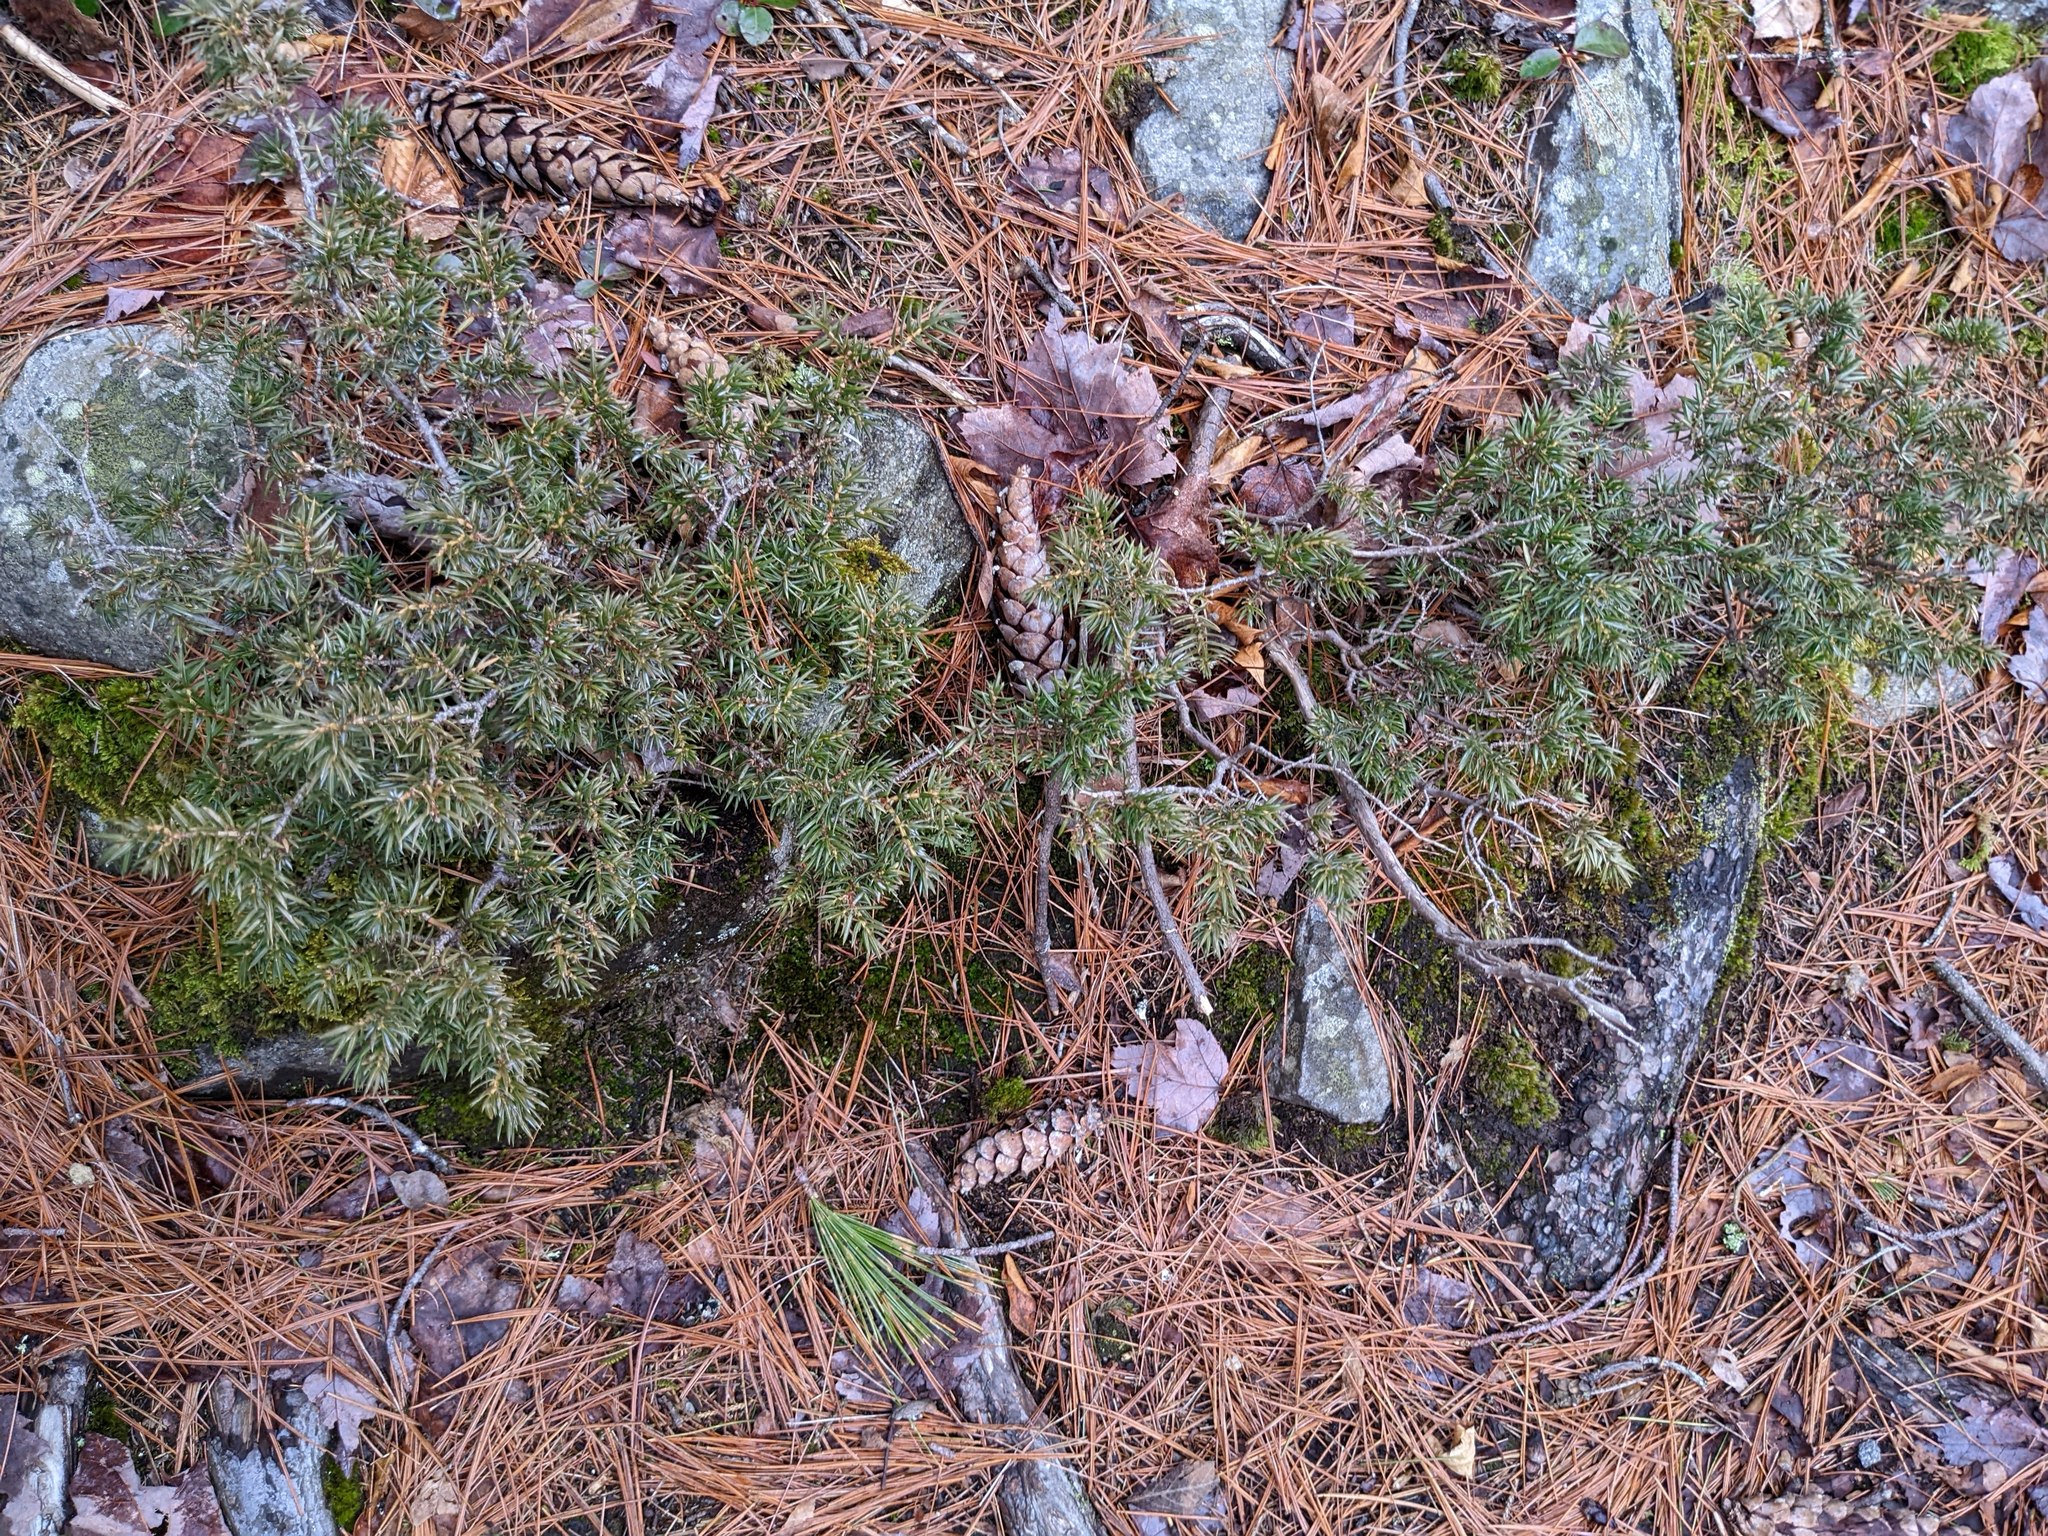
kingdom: Plantae
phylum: Tracheophyta
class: Pinopsida
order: Pinales
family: Cupressaceae
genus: Juniperus
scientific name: Juniperus communis
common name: Common juniper
